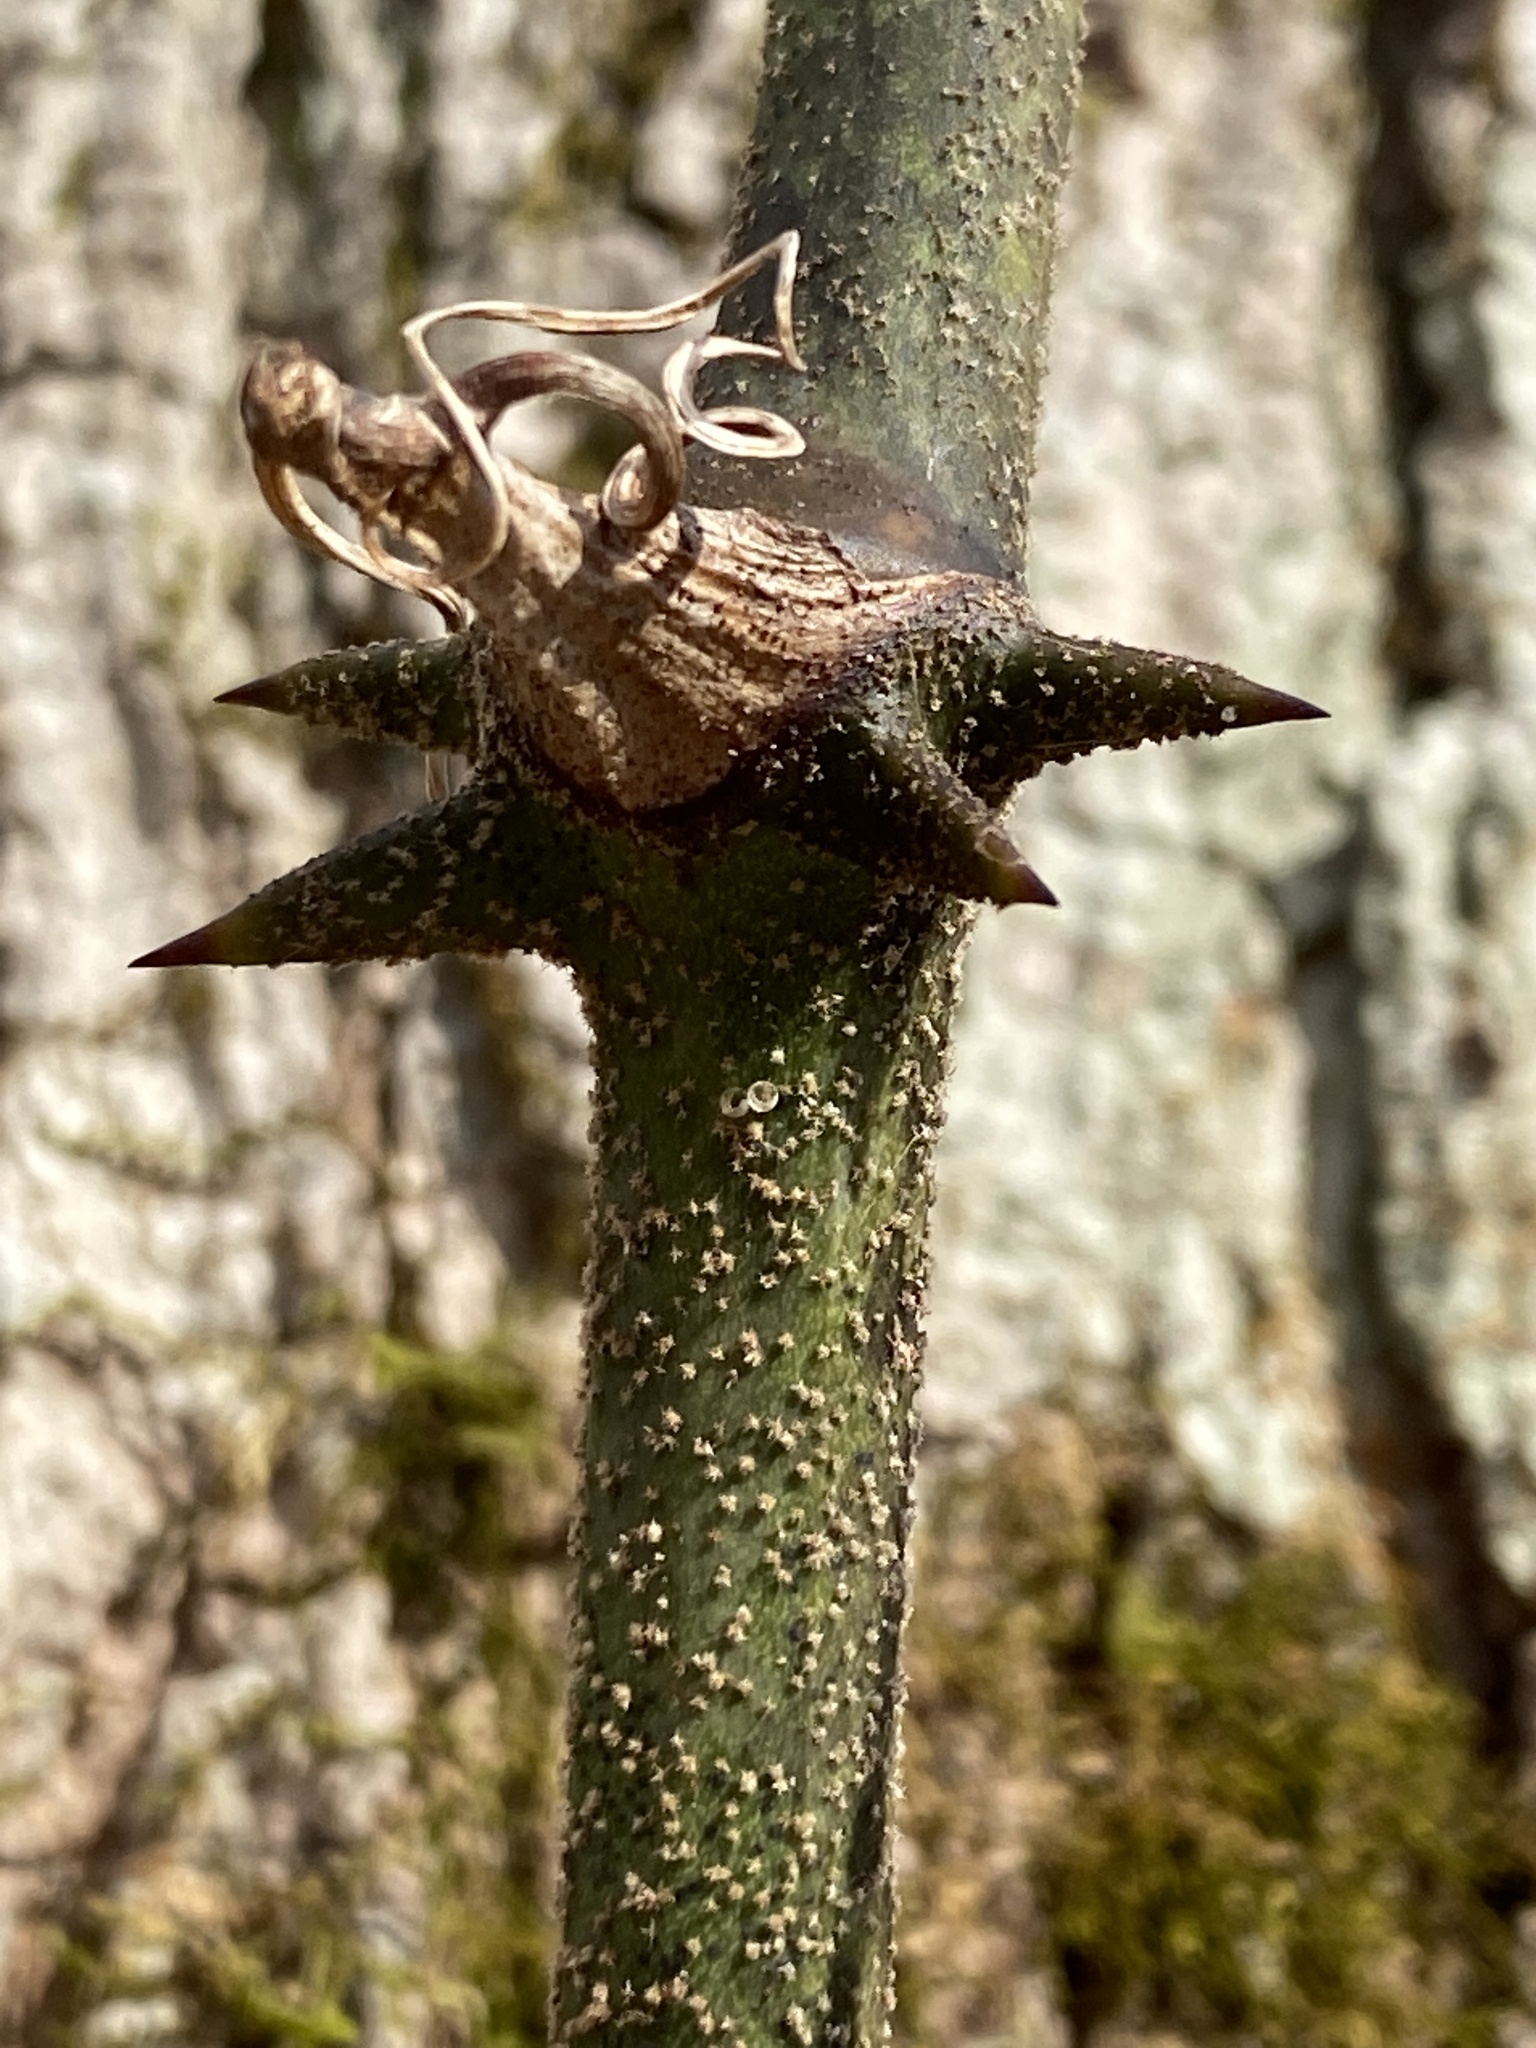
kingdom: Plantae
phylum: Tracheophyta
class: Liliopsida
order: Liliales
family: Smilacaceae
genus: Smilax
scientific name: Smilax bona-nox
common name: Catbrier
